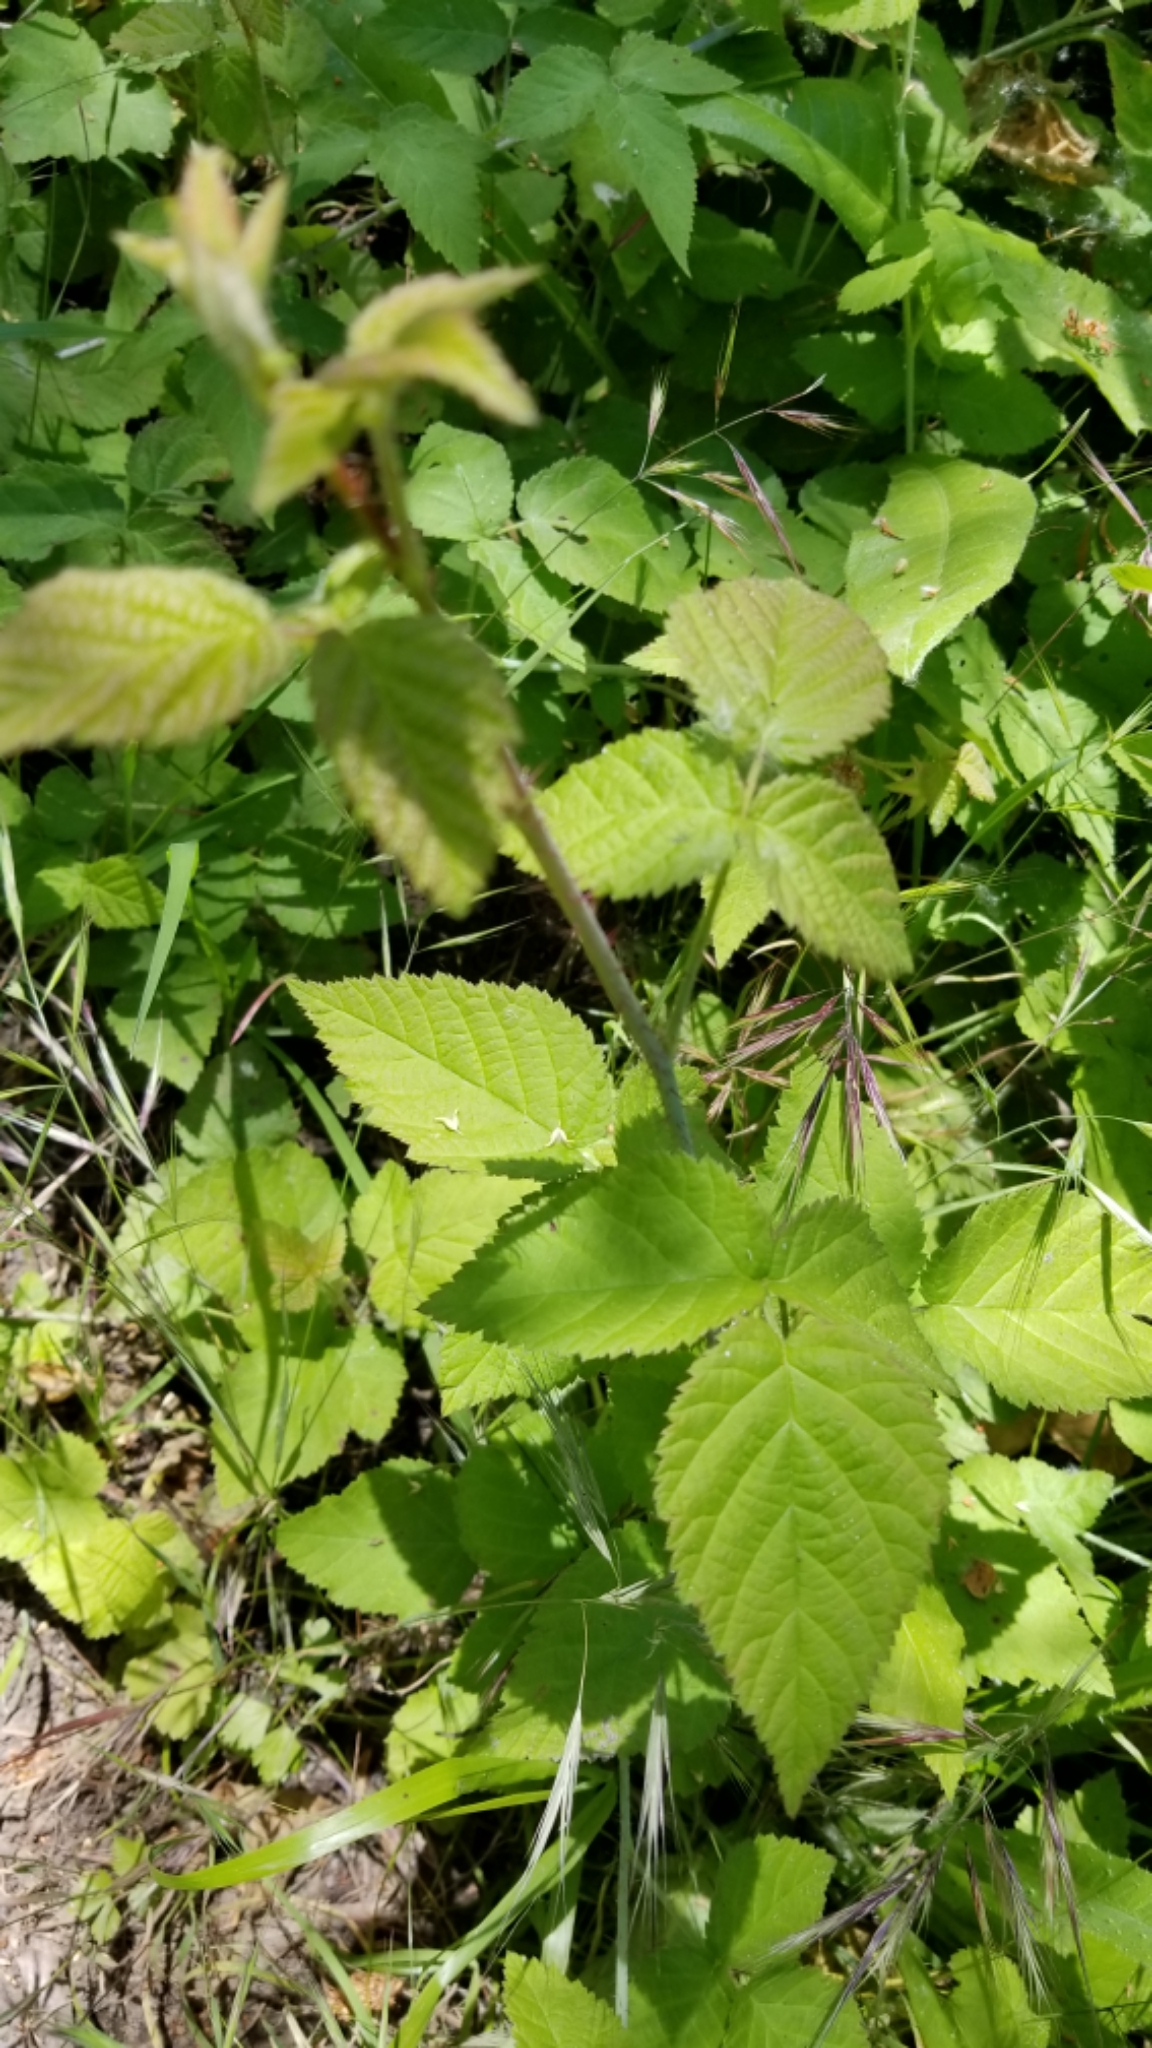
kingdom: Plantae
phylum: Tracheophyta
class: Magnoliopsida
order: Rosales
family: Rosaceae
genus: Rubus
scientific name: Rubus macropetalus
